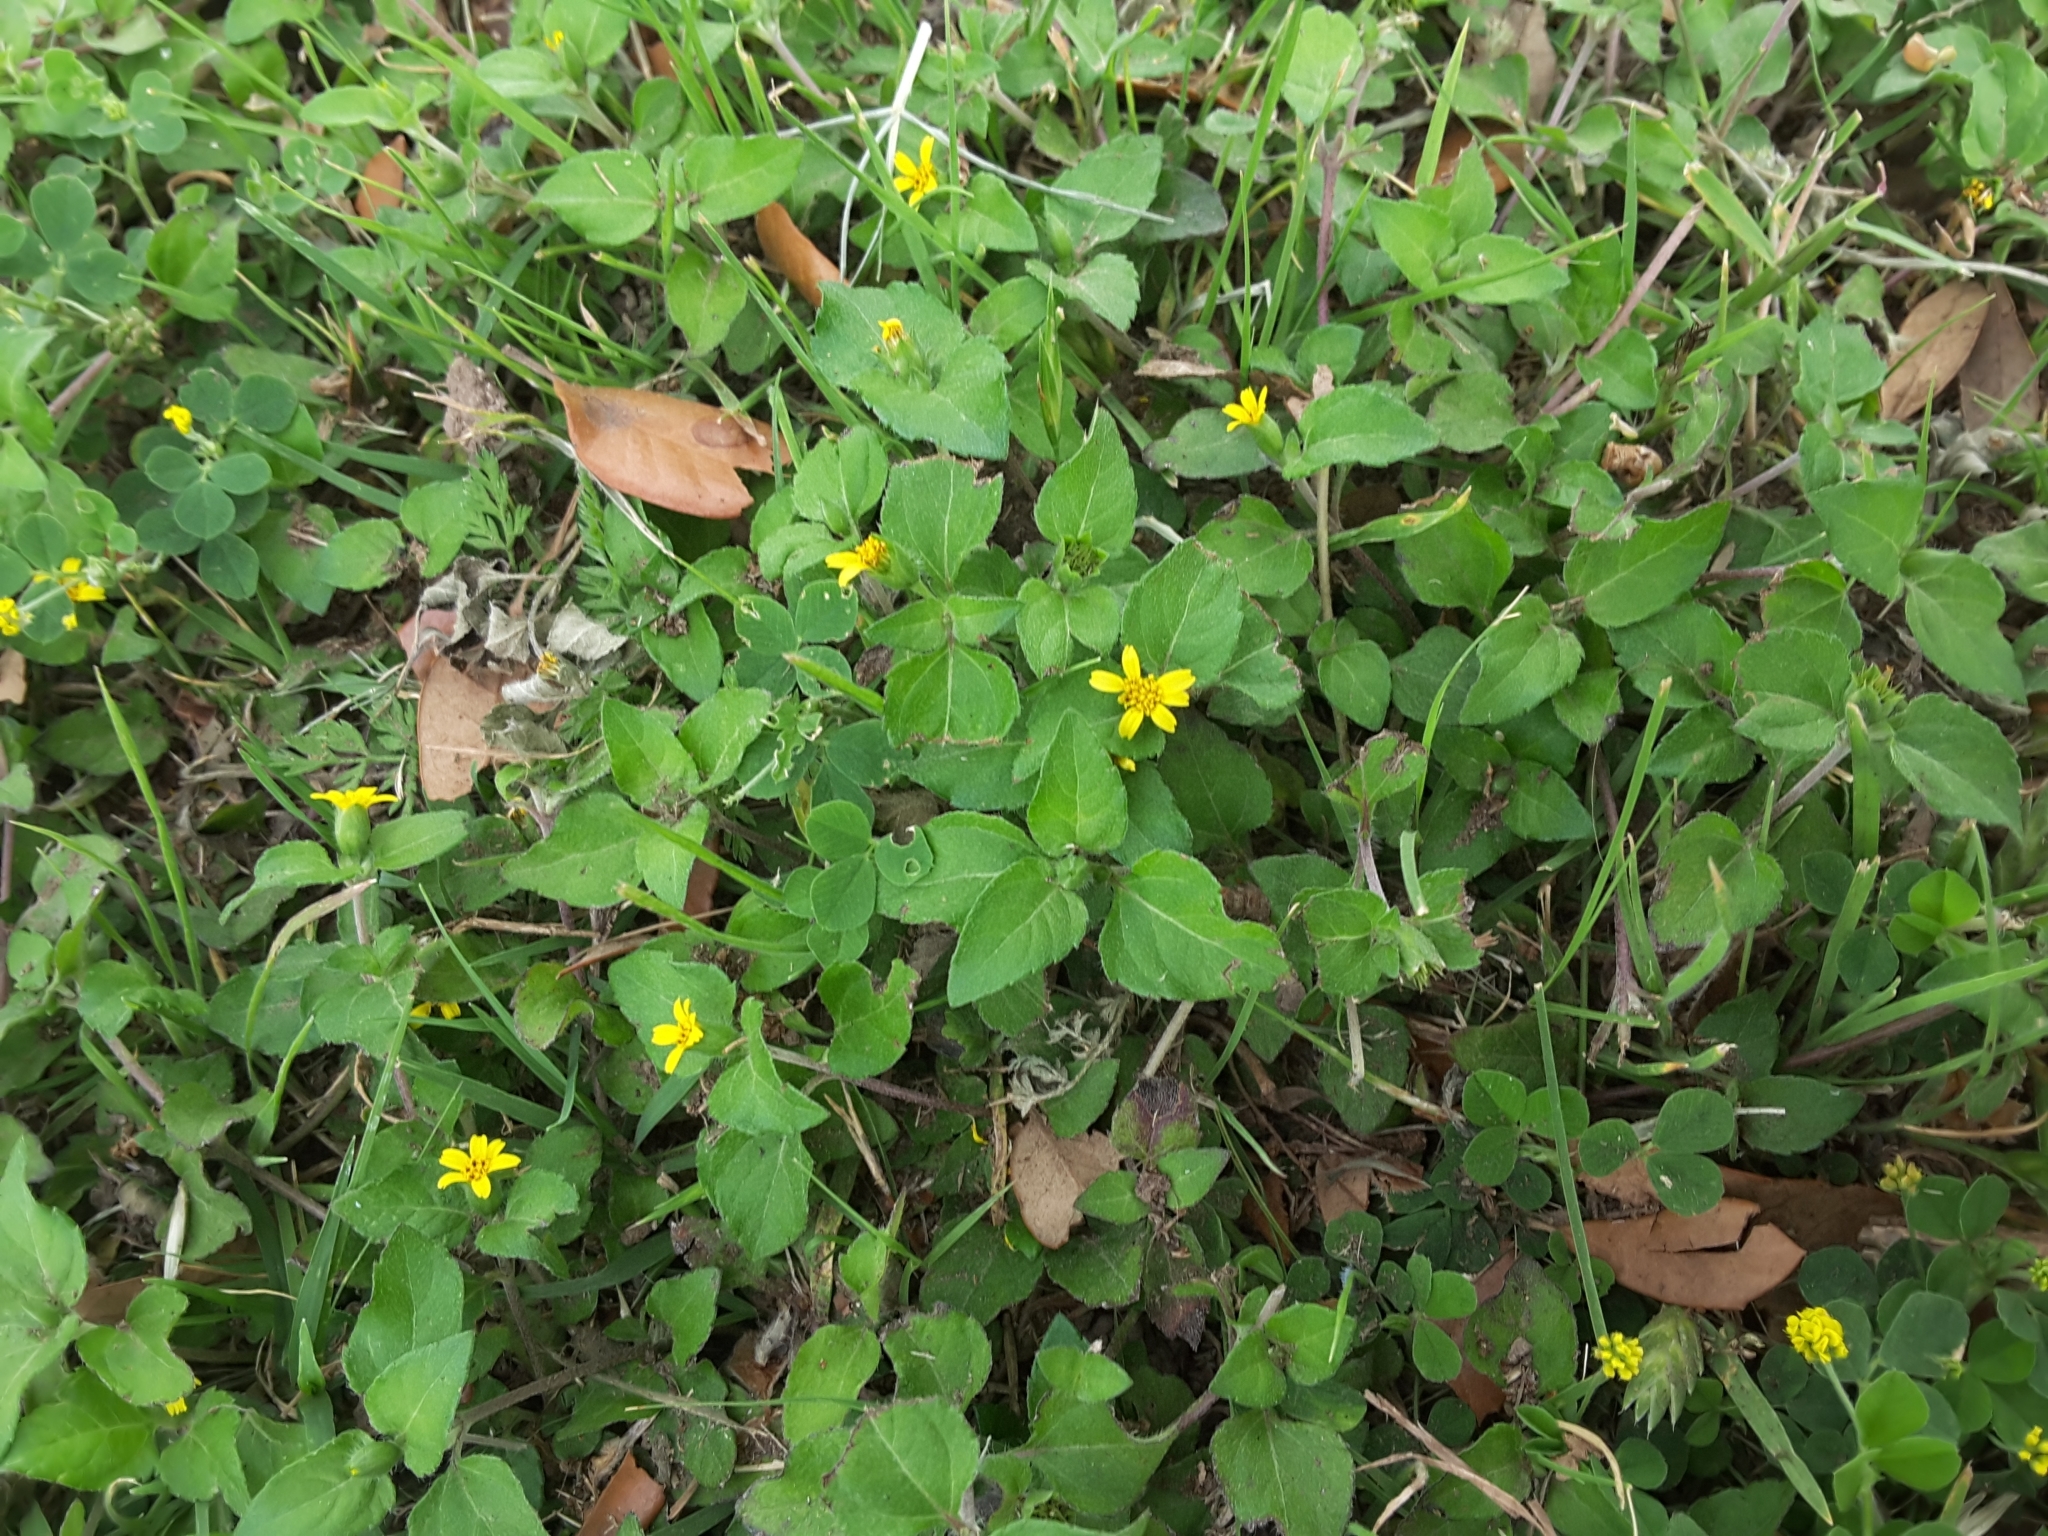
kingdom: Plantae
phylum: Tracheophyta
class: Magnoliopsida
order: Asterales
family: Asteraceae
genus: Calyptocarpus
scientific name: Calyptocarpus vialis
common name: Straggler daisy
